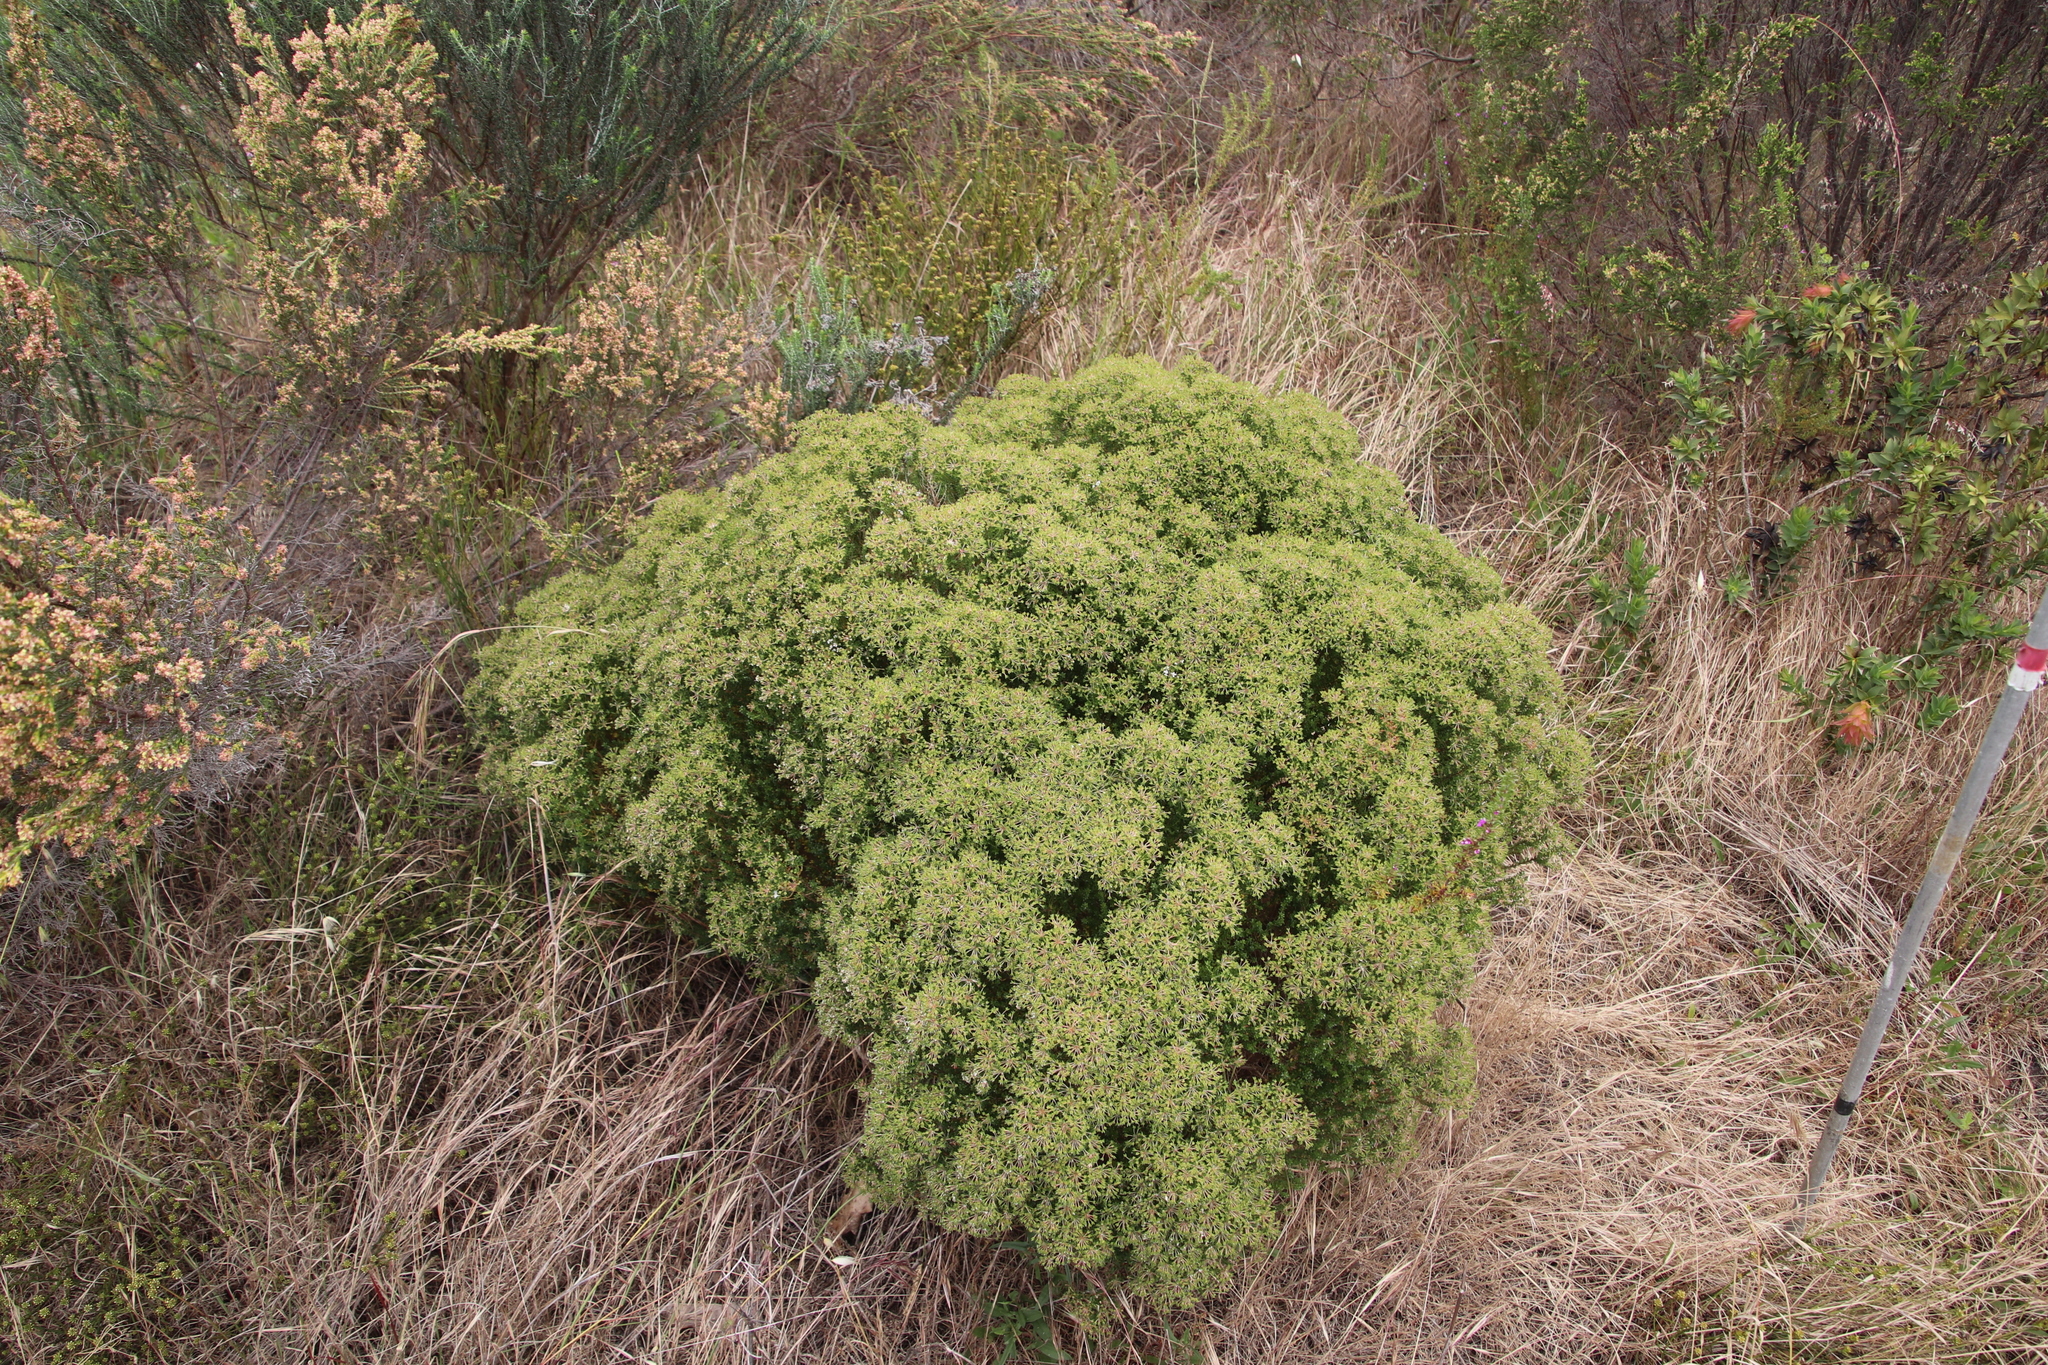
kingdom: Plantae
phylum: Tracheophyta
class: Magnoliopsida
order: Sapindales
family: Rutaceae
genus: Agathosma
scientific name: Agathosma glabrata
